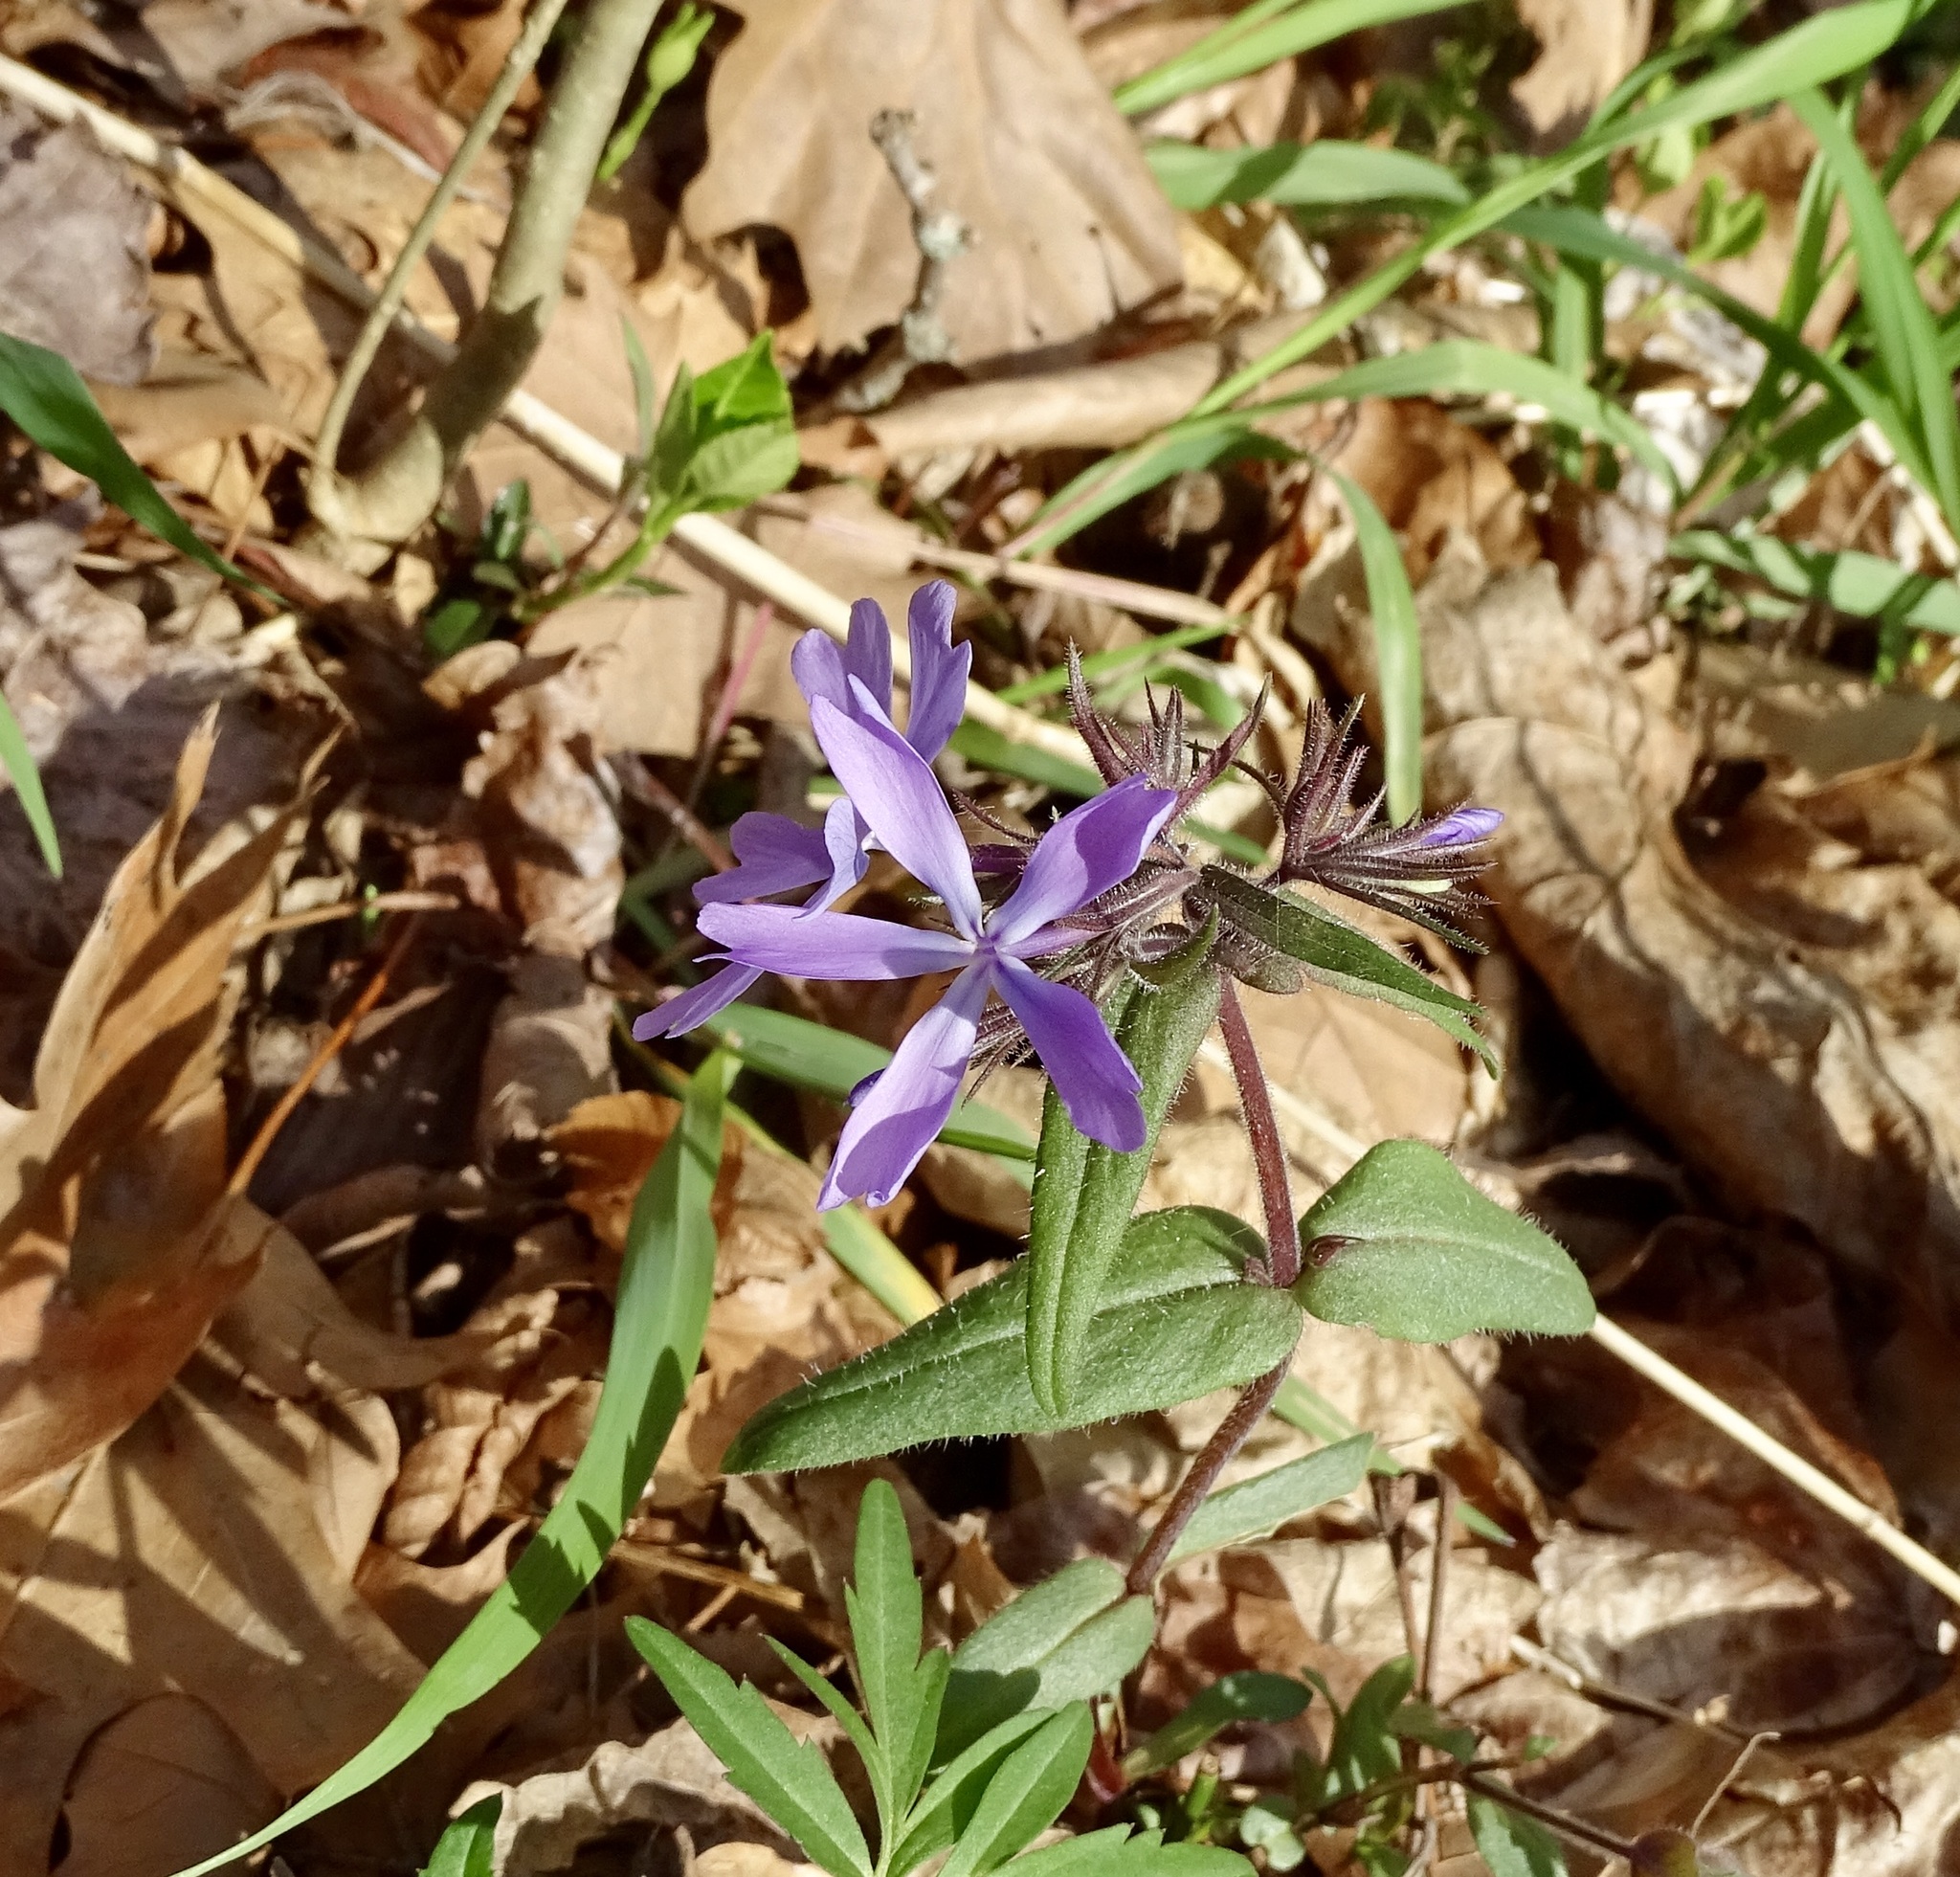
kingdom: Plantae
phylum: Tracheophyta
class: Magnoliopsida
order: Ericales
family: Polemoniaceae
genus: Phlox
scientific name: Phlox divaricata
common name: Blue phlox
